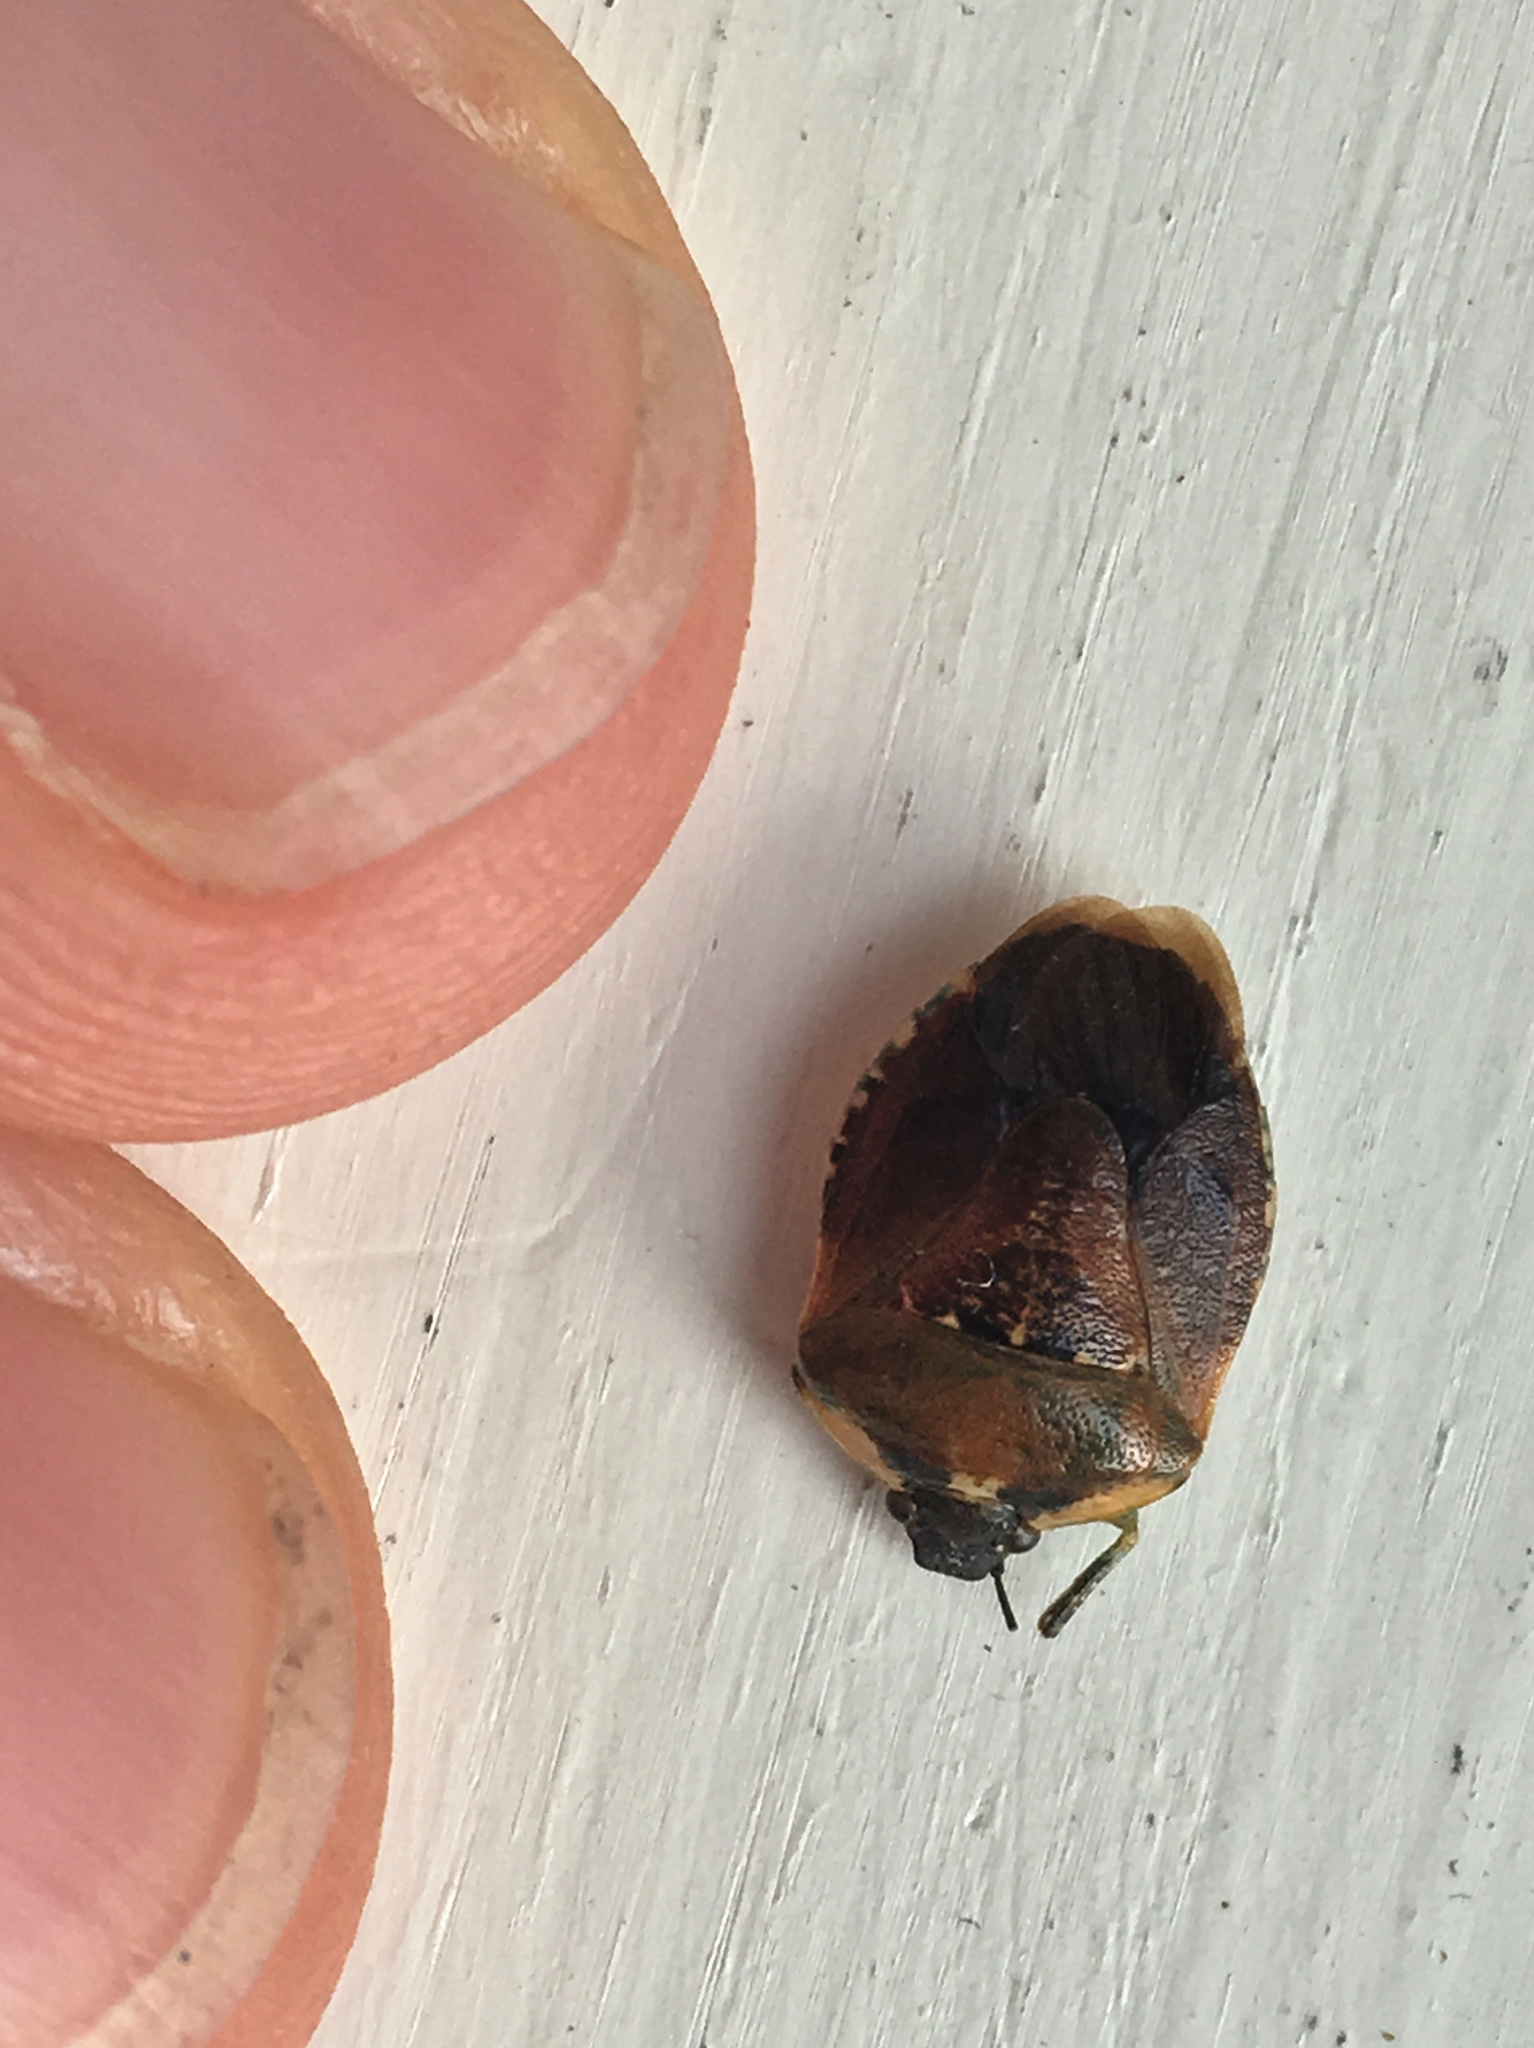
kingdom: Animalia
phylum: Arthropoda
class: Insecta
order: Hemiptera
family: Pentatomidae
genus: Monteithiella
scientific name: Monteithiella
